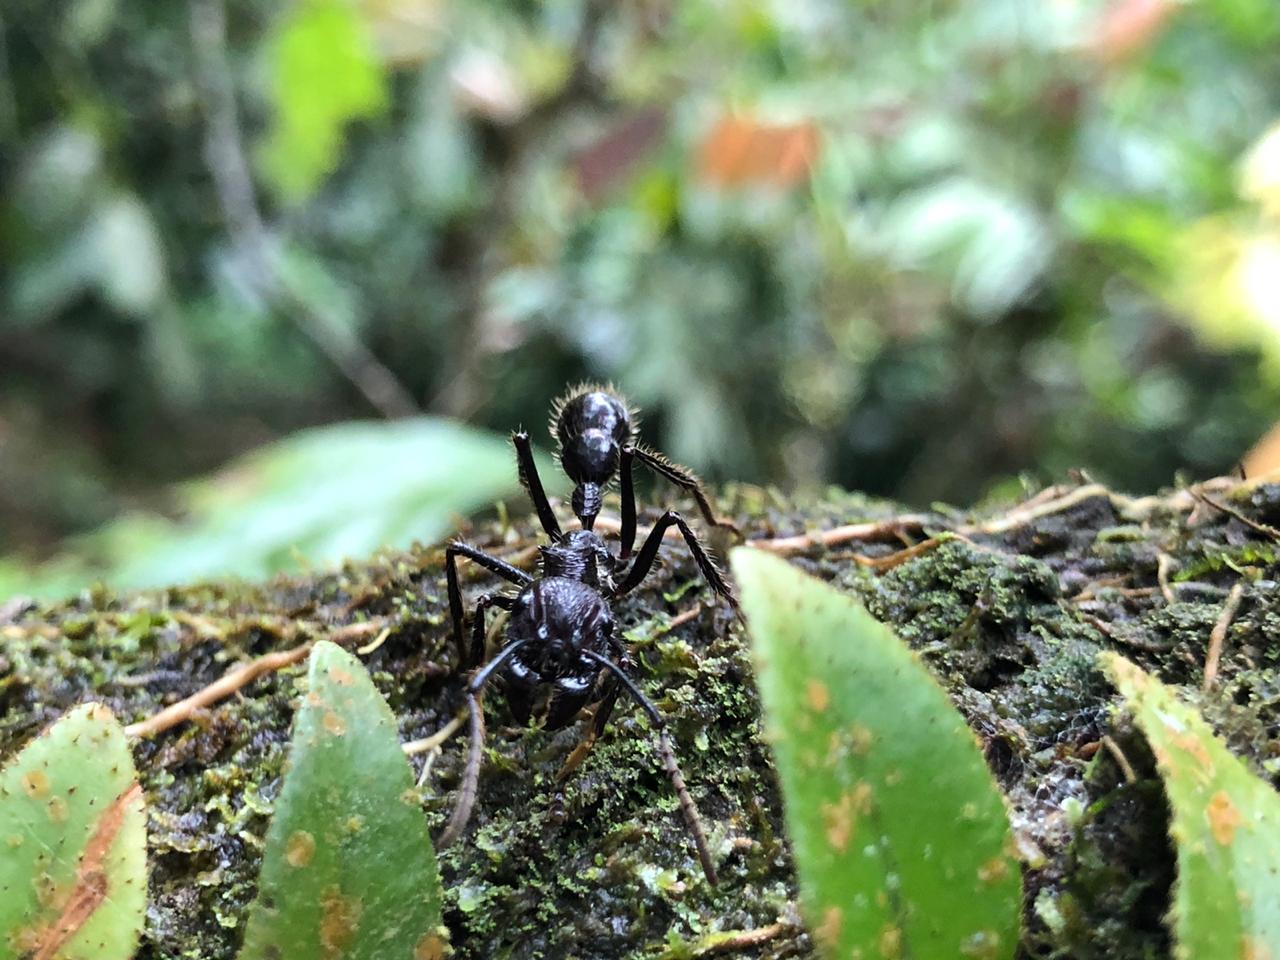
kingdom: Animalia
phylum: Arthropoda
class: Insecta
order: Hymenoptera
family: Formicidae
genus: Paraponera
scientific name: Paraponera clavata
